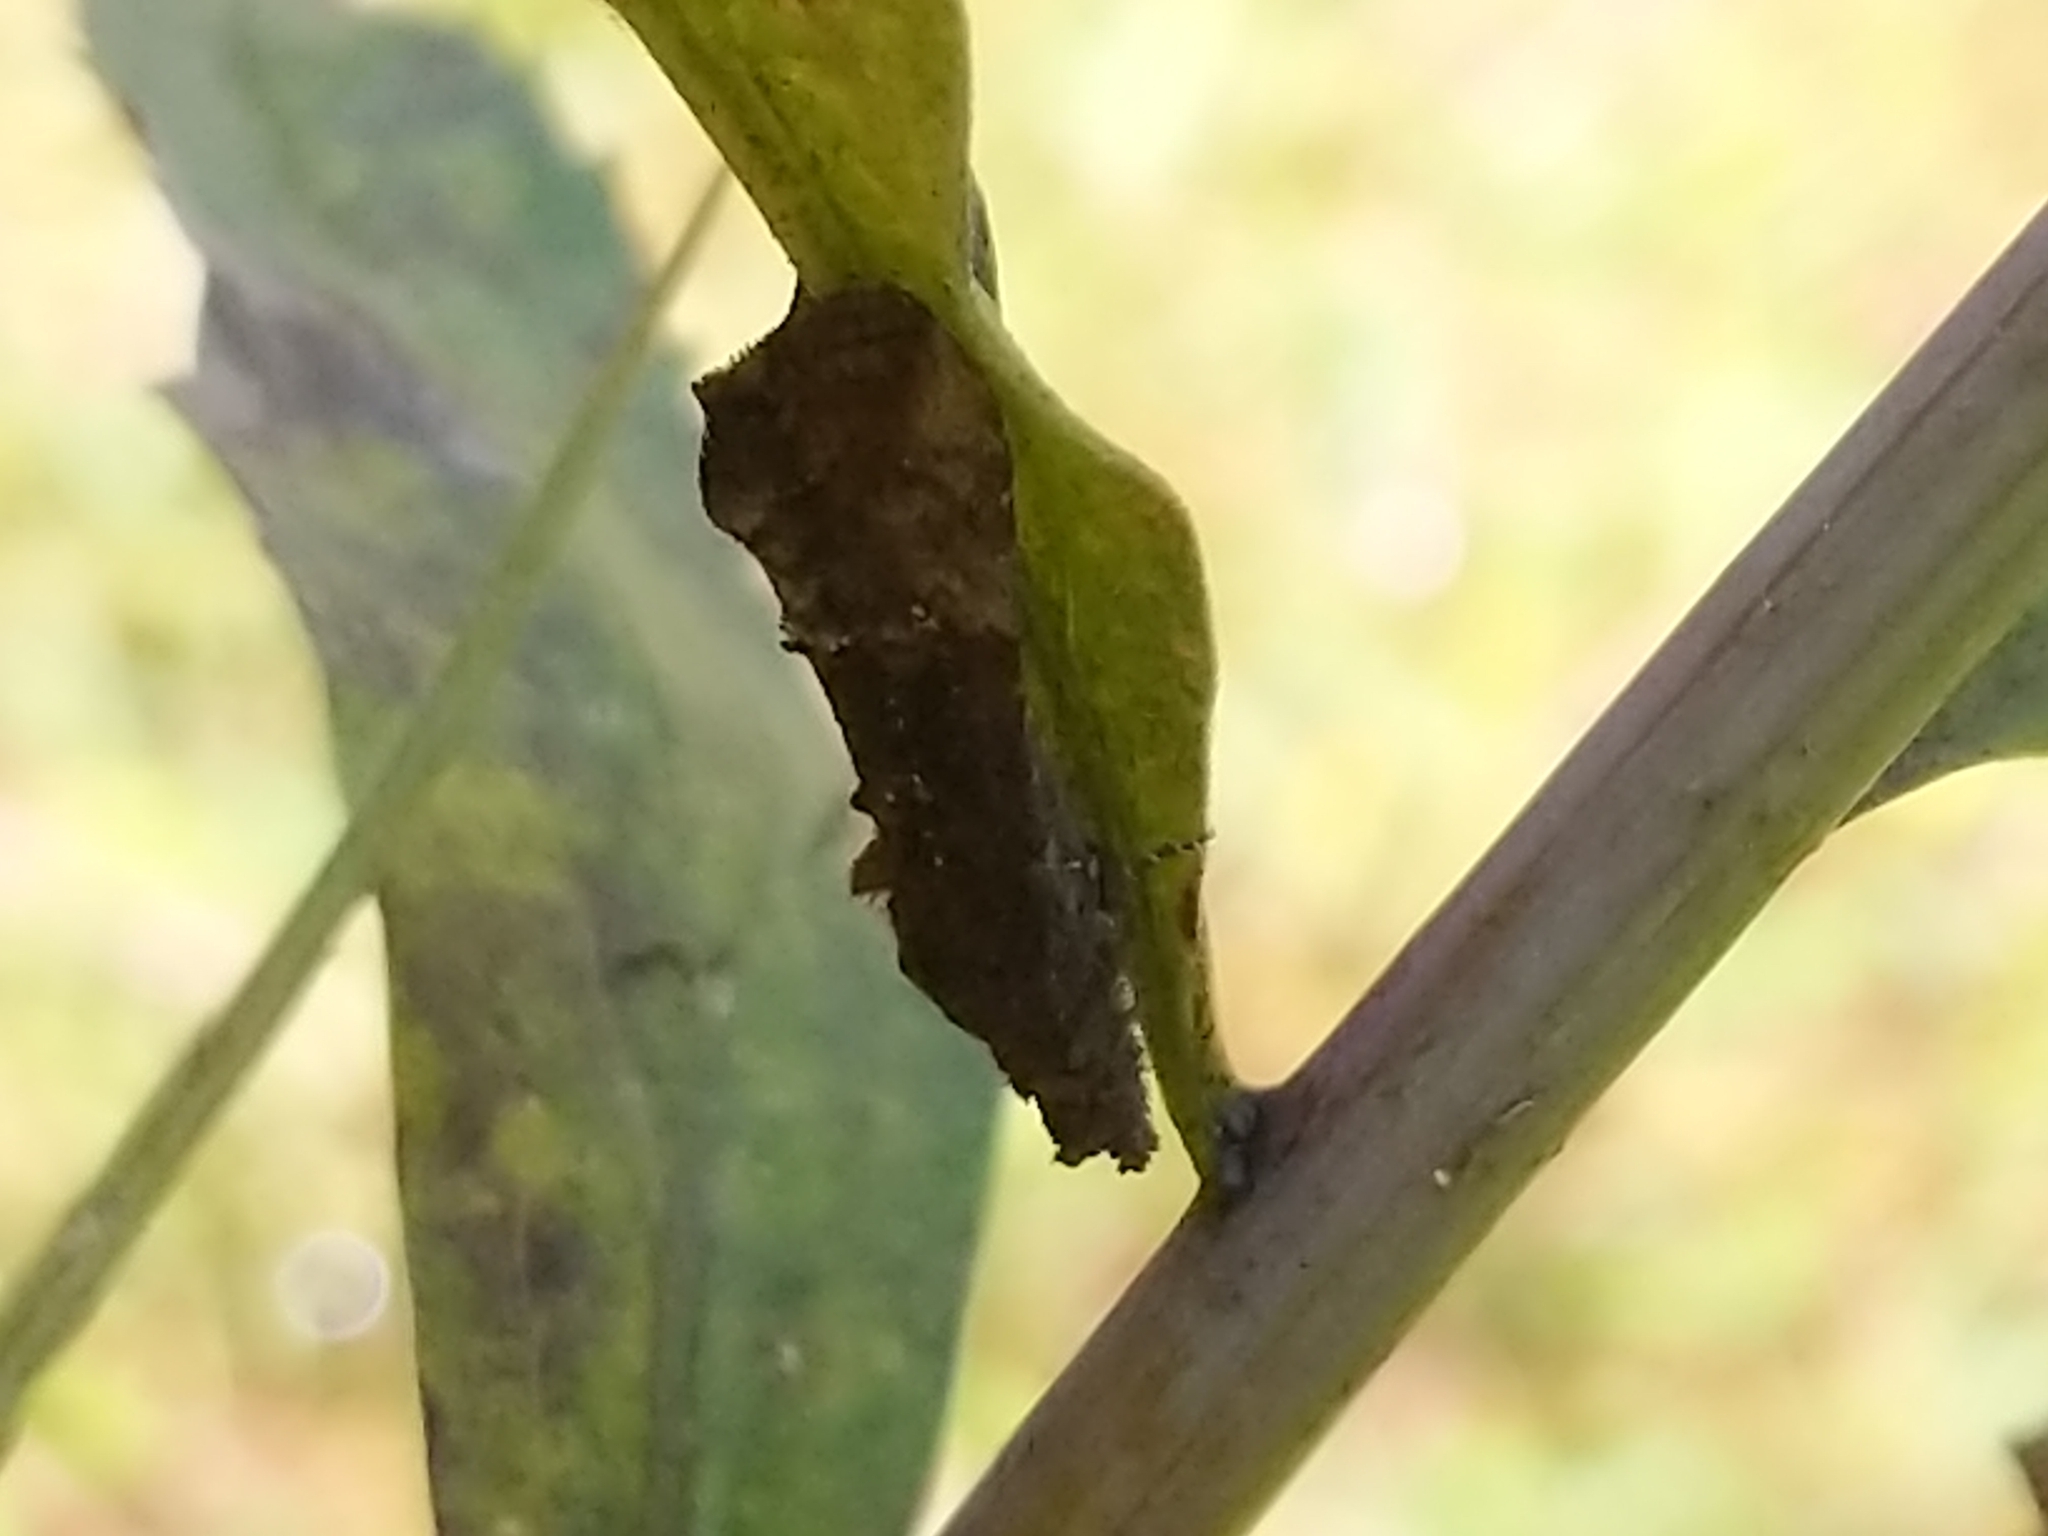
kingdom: Animalia
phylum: Arthropoda
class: Insecta
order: Lepidoptera
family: Erebidae
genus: Hypena
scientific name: Hypena scabra
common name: Green cloverworm
